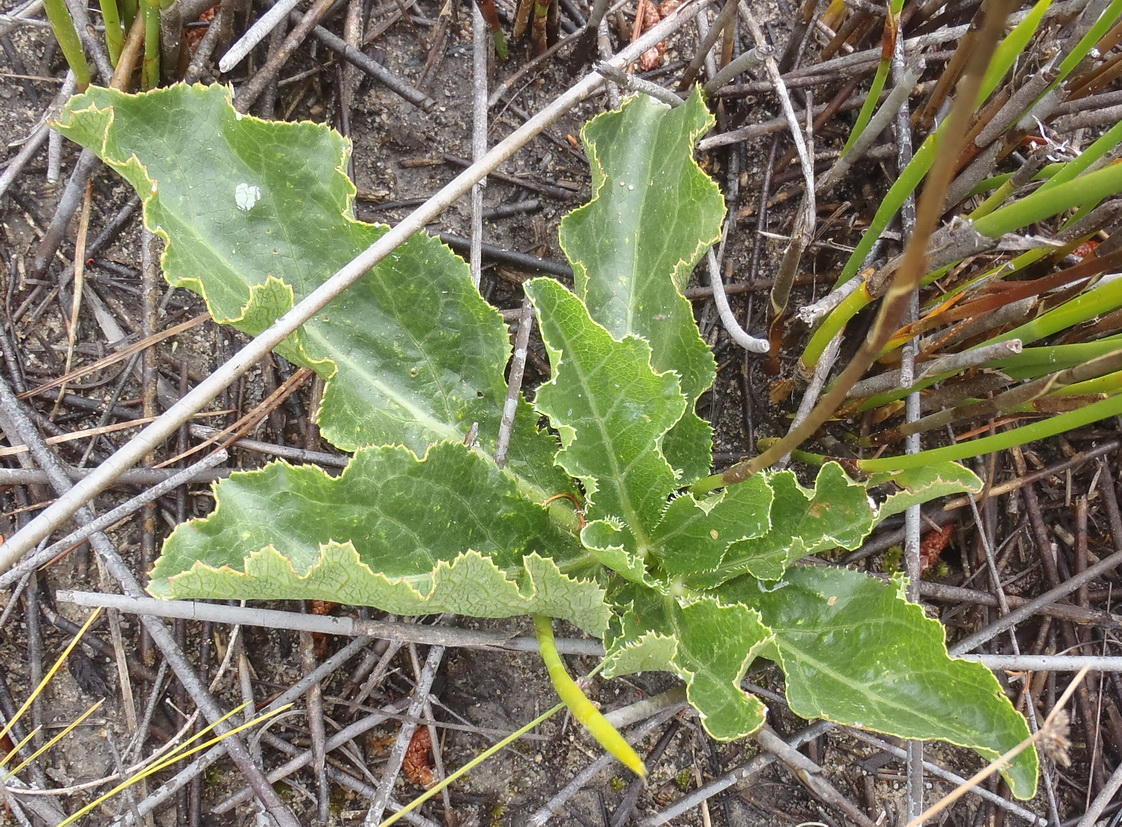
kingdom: Plantae
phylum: Tracheophyta
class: Magnoliopsida
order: Apiales
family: Apiaceae
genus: Lichtensteinia
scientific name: Lichtensteinia trifida
